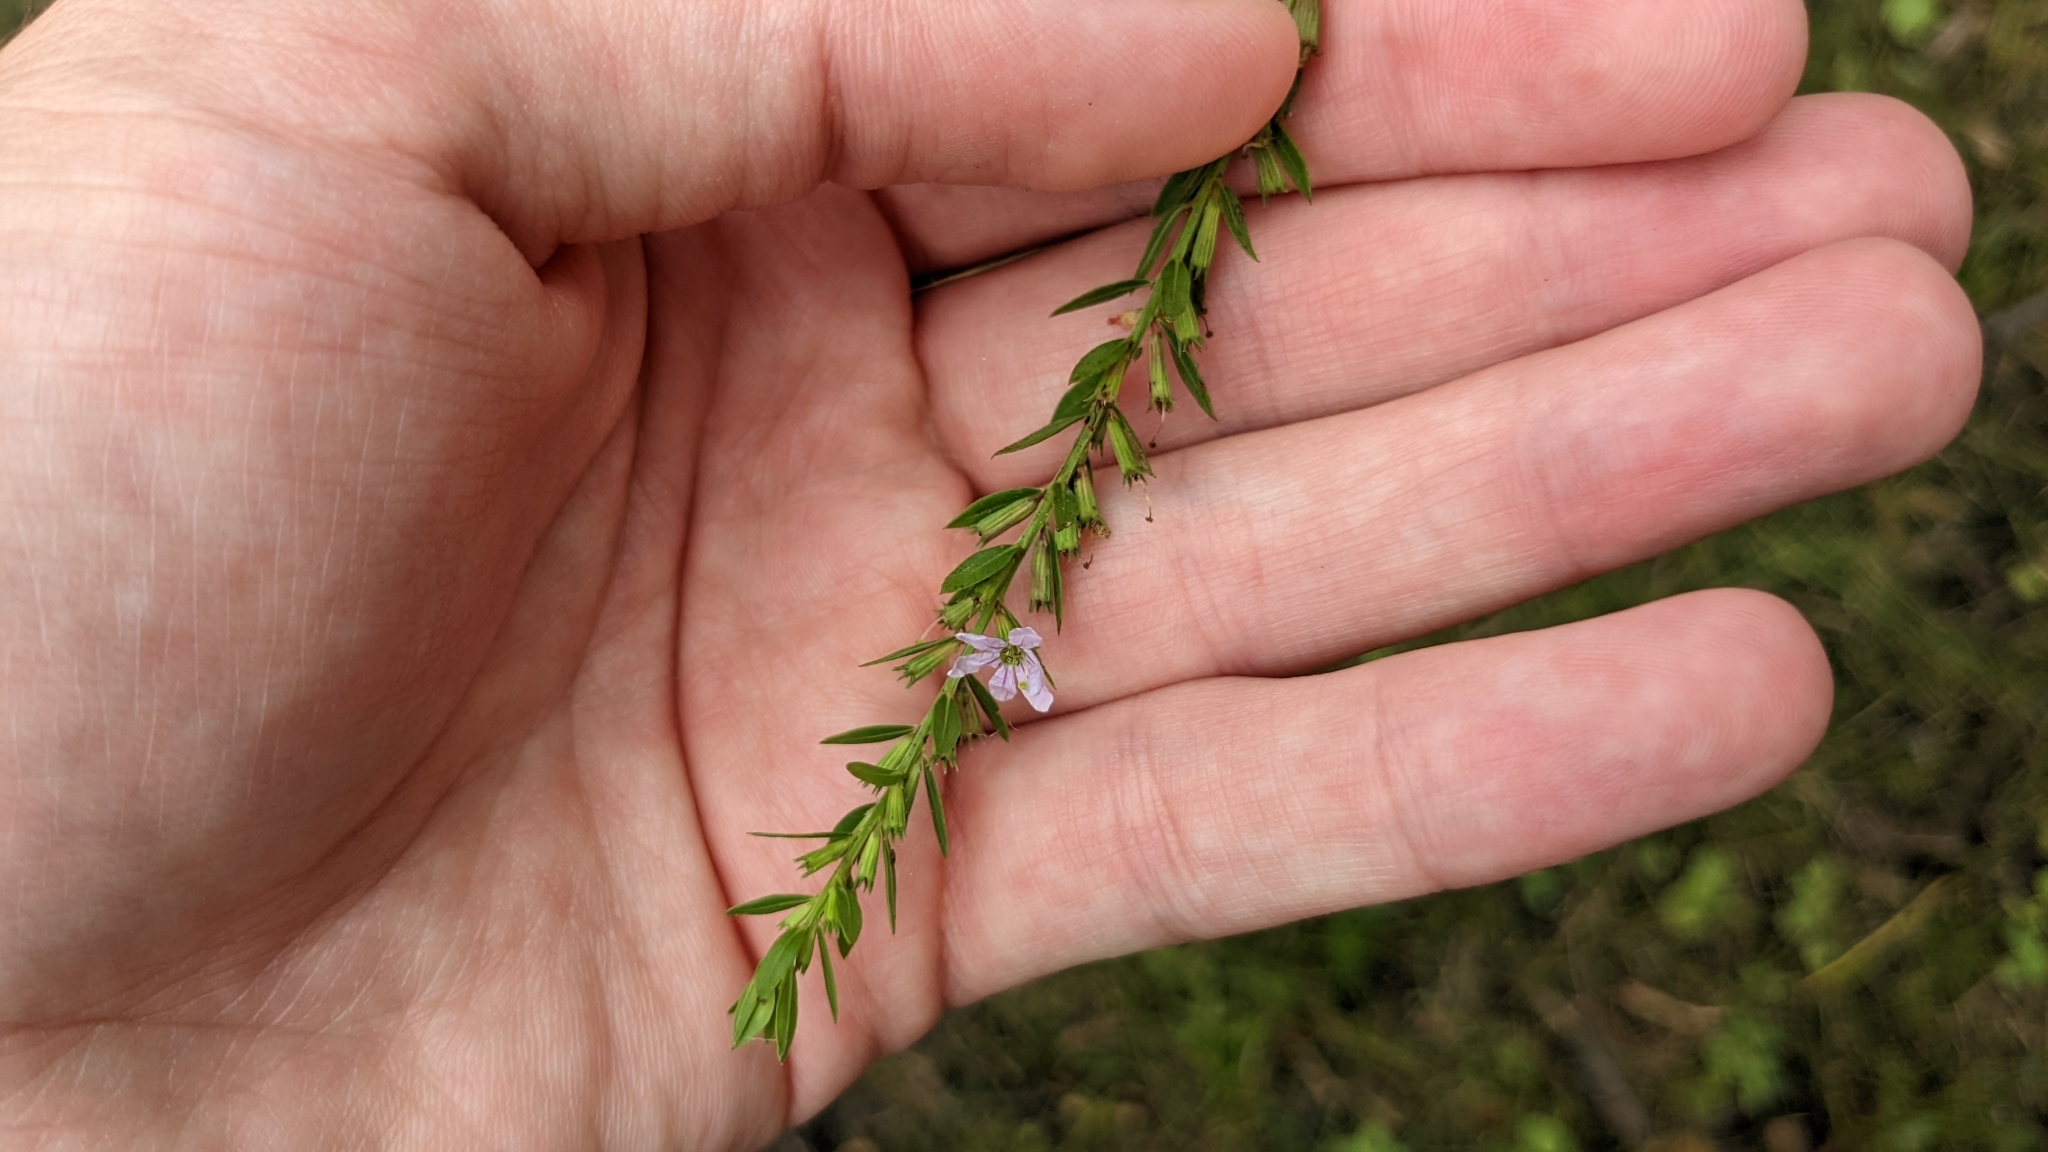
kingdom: Plantae
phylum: Tracheophyta
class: Magnoliopsida
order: Myrtales
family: Lythraceae
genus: Lythrum
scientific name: Lythrum alatum
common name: Winged loosestrife
